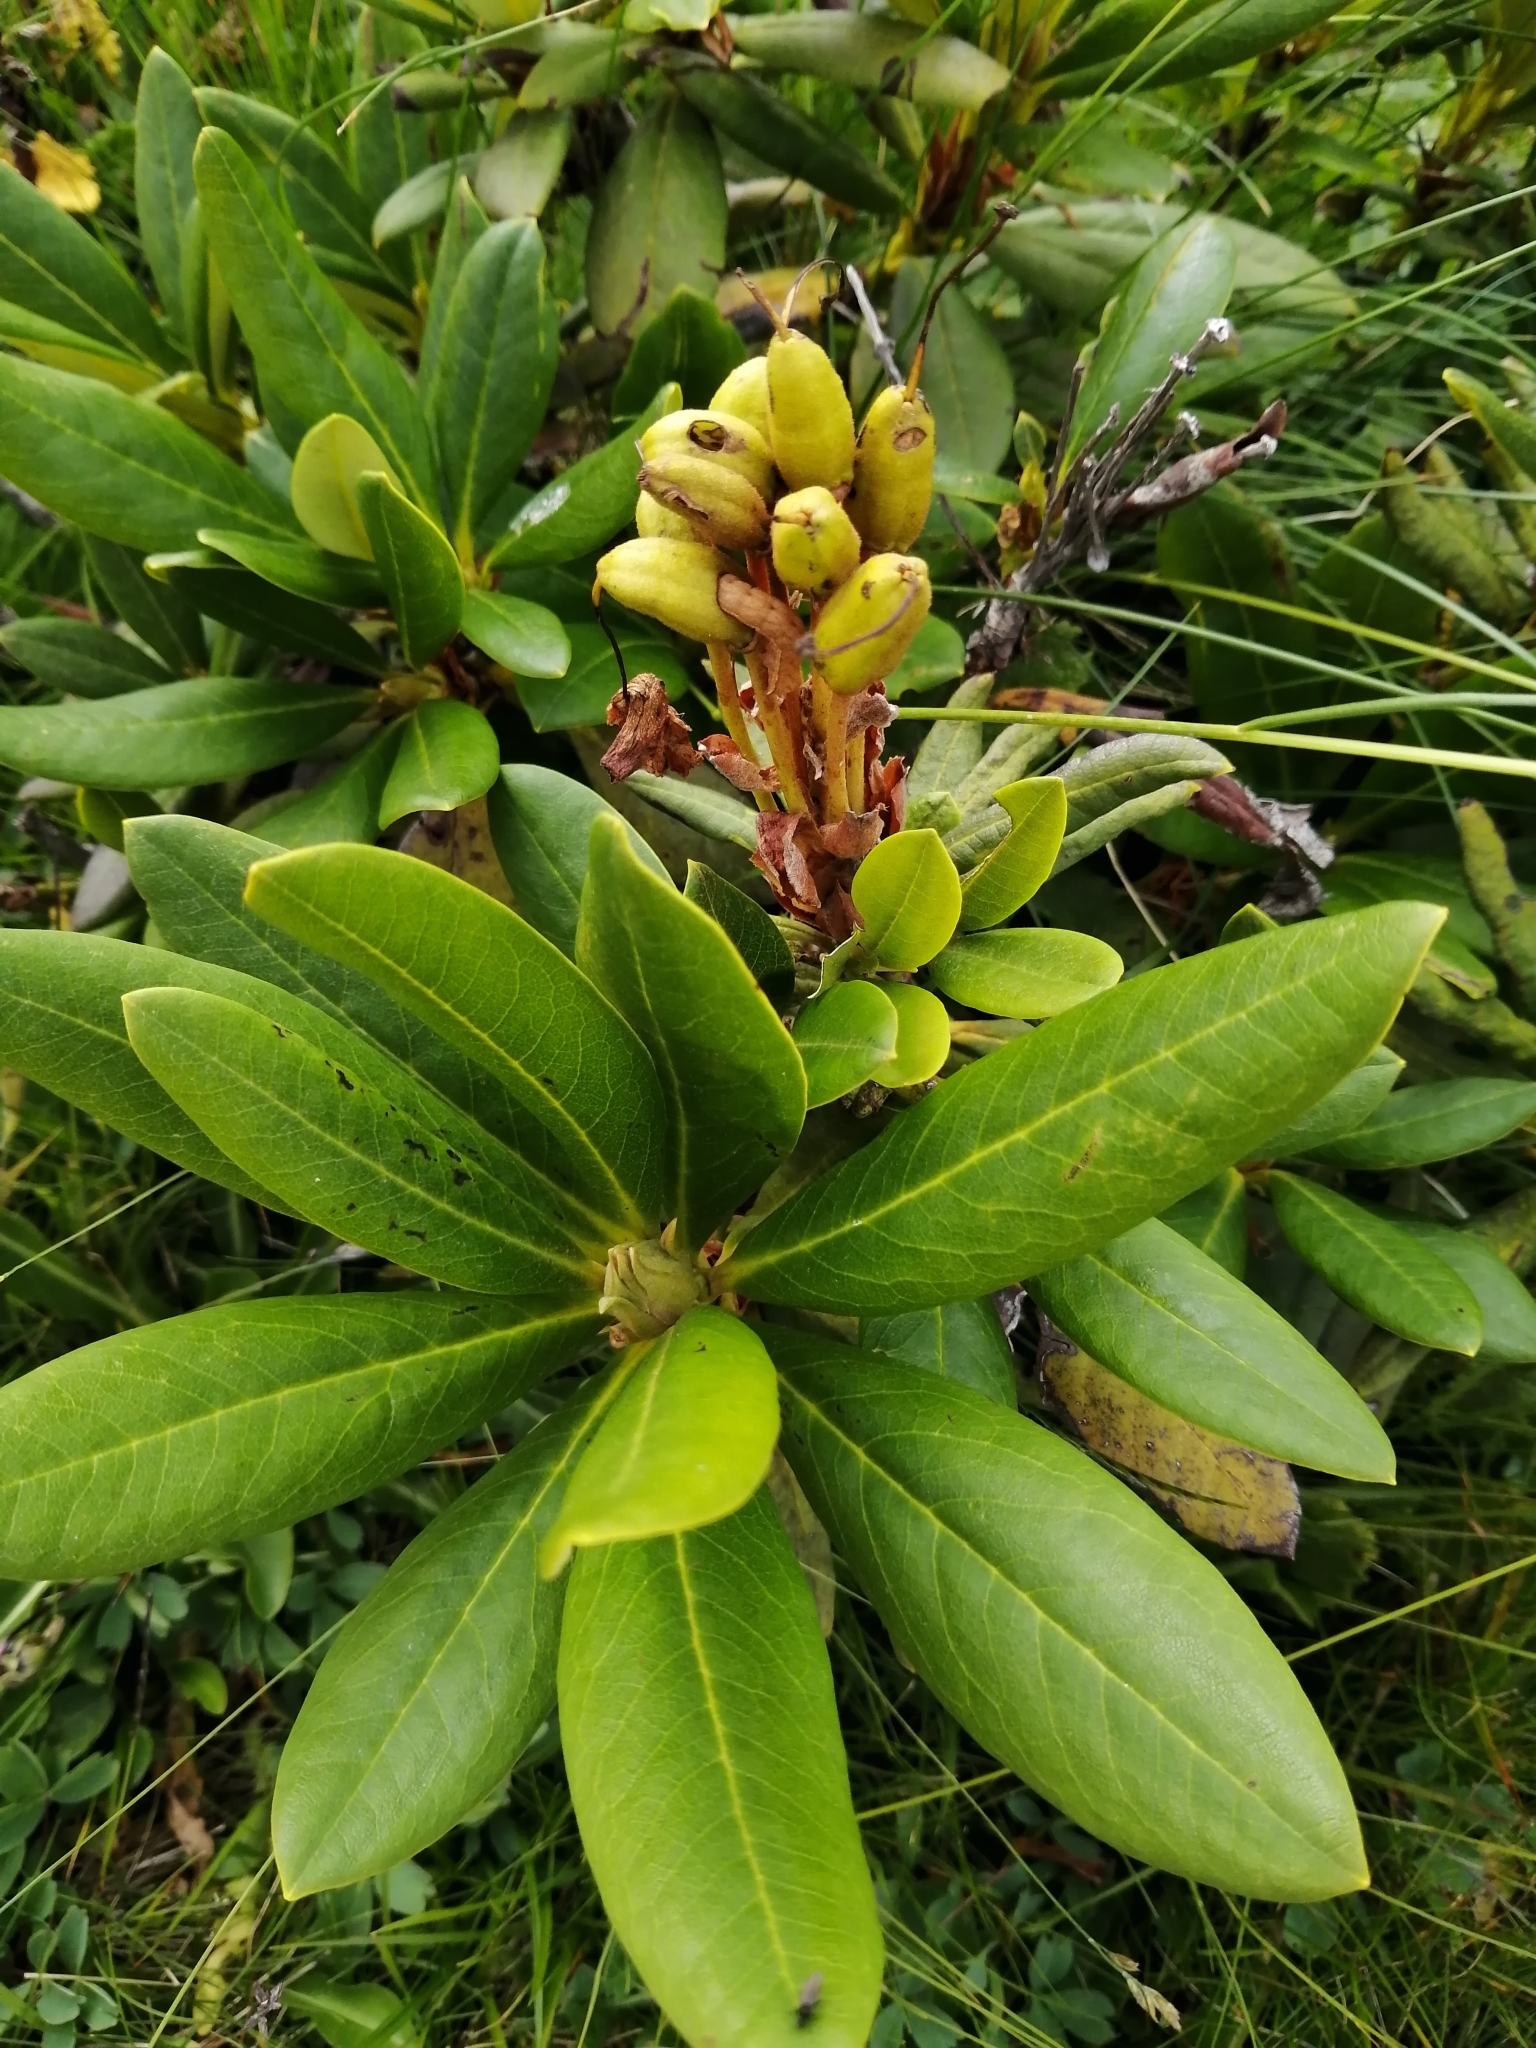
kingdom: Plantae
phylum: Tracheophyta
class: Magnoliopsida
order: Ericales
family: Ericaceae
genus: Rhododendron
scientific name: Rhododendron caucasicum
